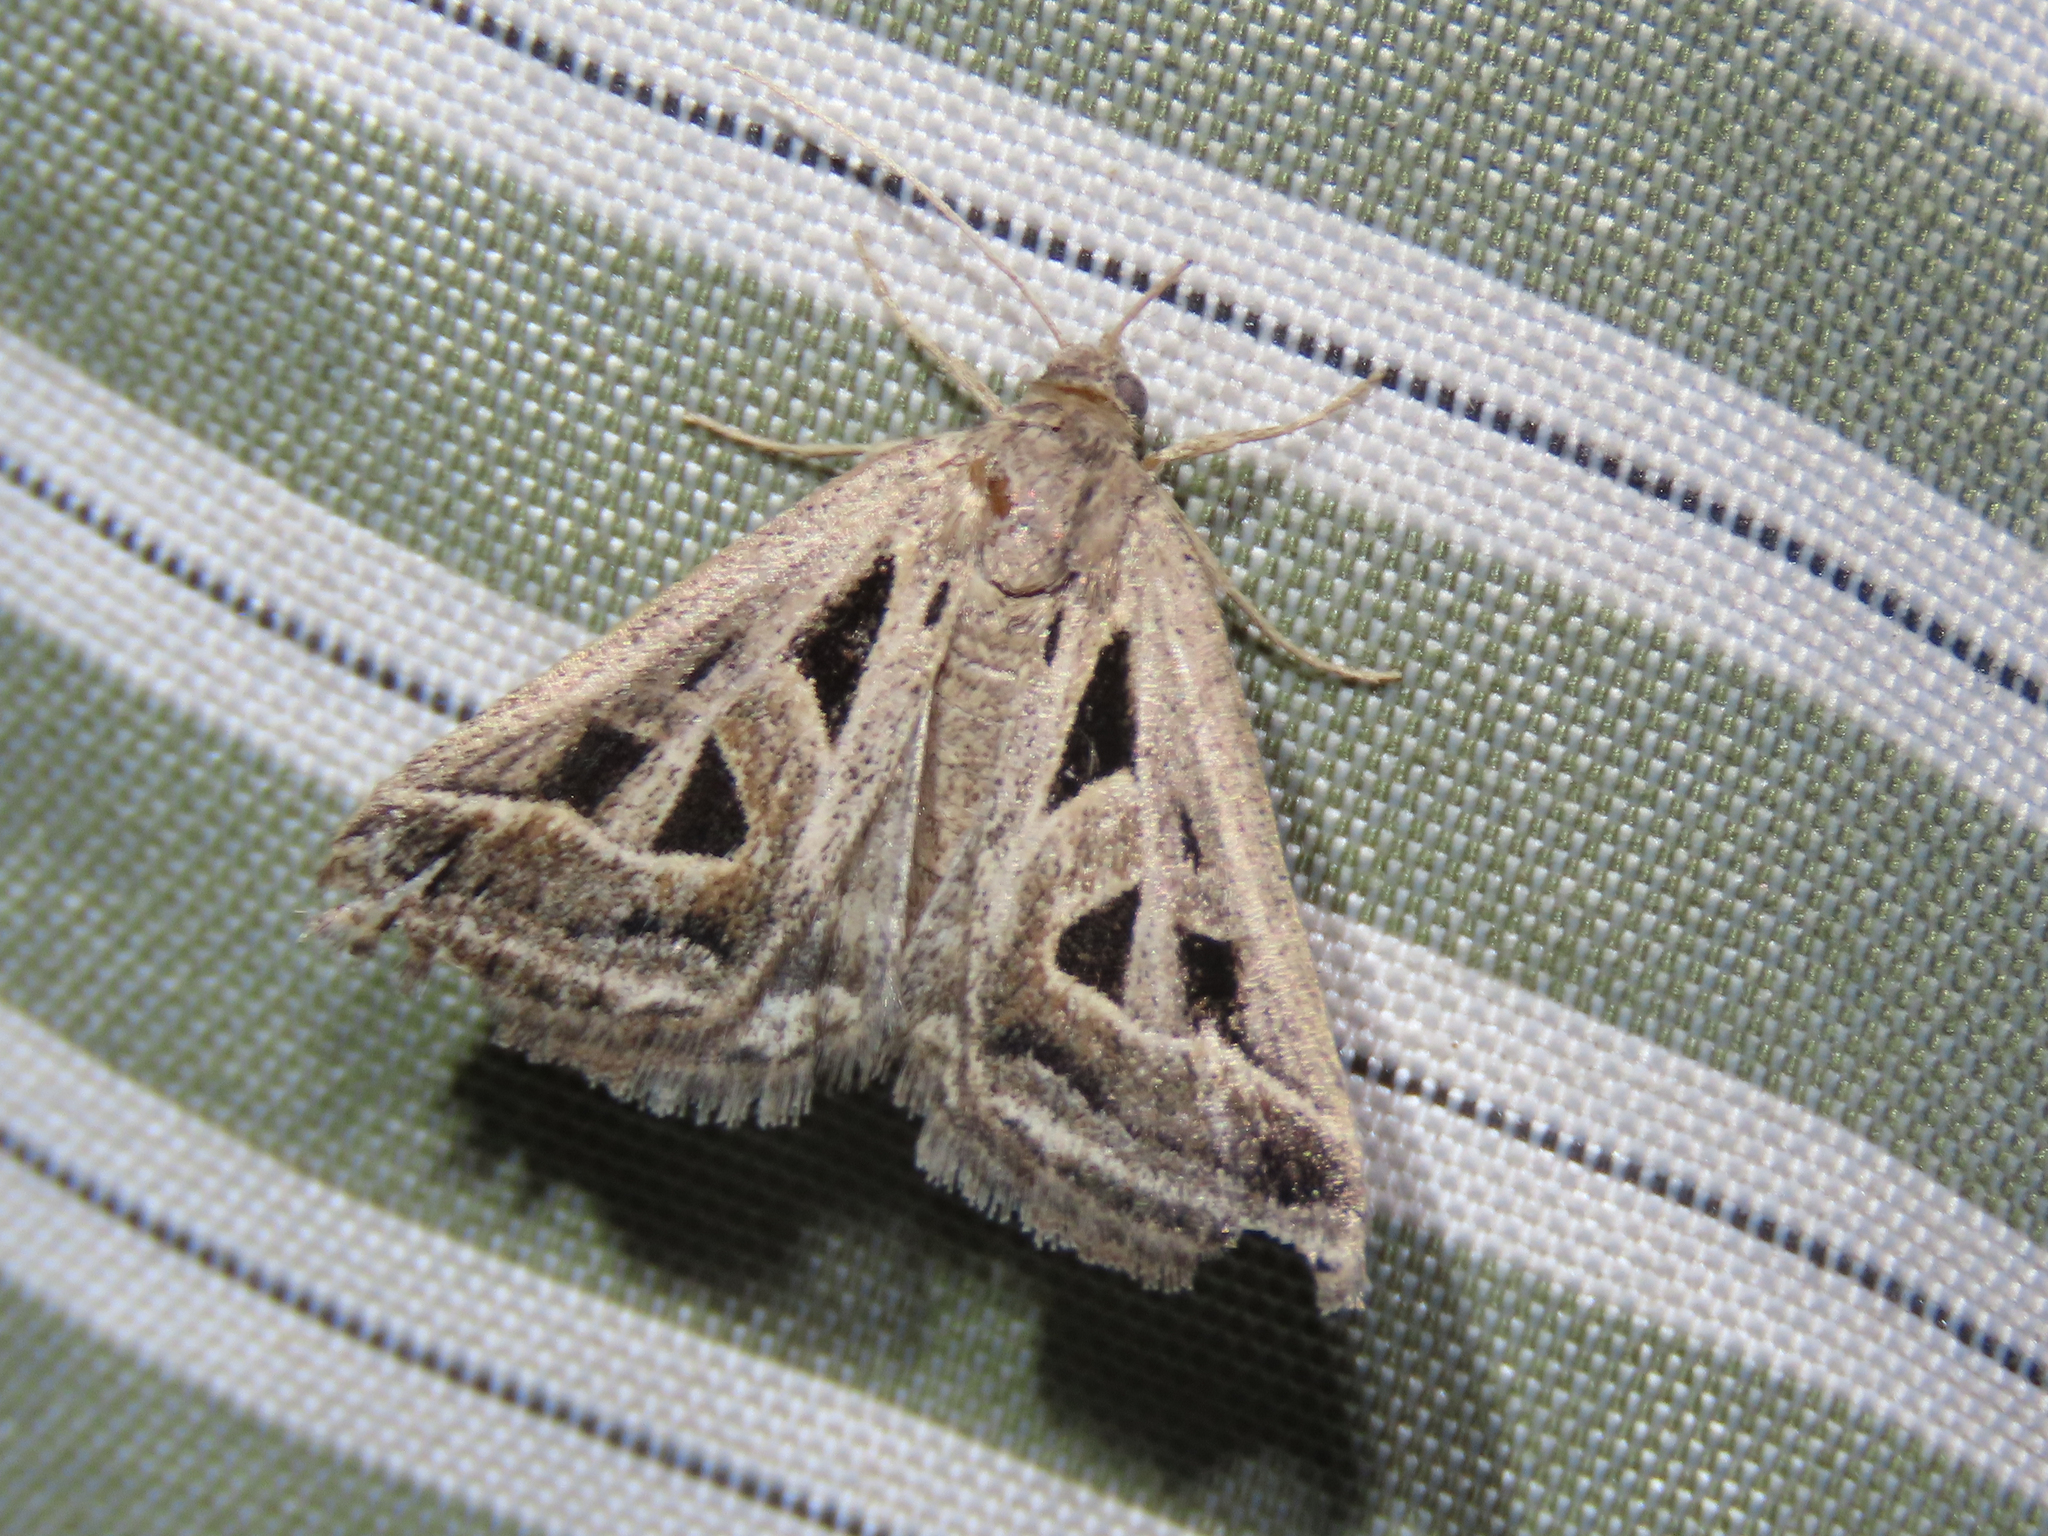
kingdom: Animalia
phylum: Arthropoda
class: Insecta
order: Lepidoptera
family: Erebidae
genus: Callistege
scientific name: Callistege diagonalis
